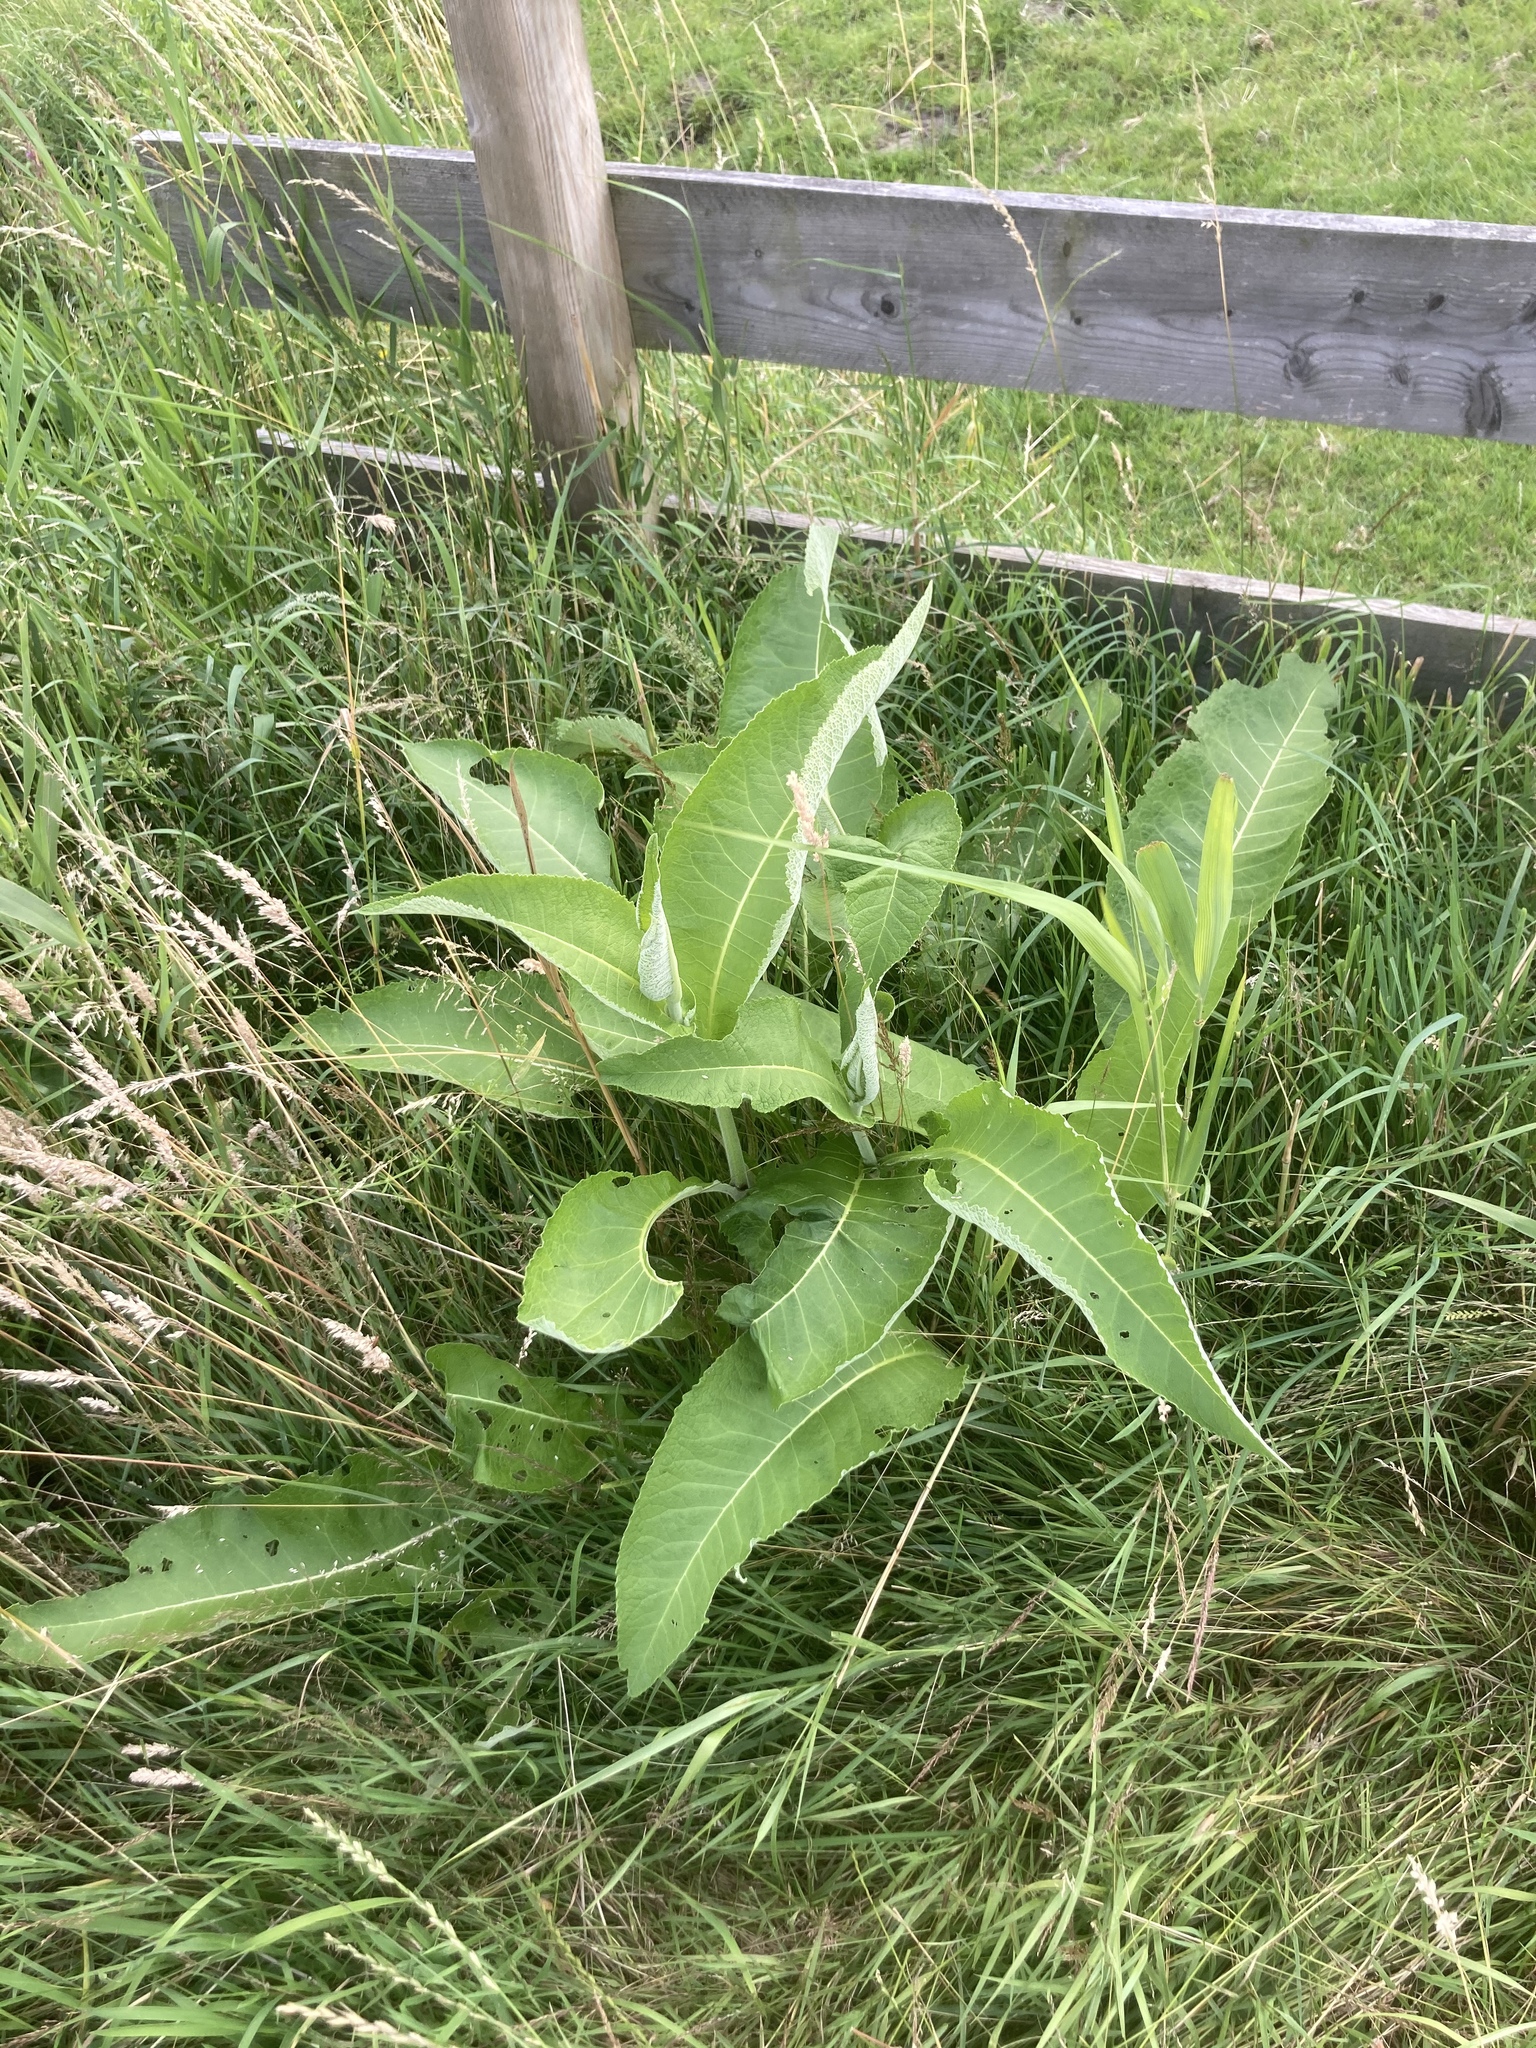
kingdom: Plantae
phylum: Tracheophyta
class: Magnoliopsida
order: Asterales
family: Asteraceae
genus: Inula
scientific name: Inula helenium
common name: Elecampane
